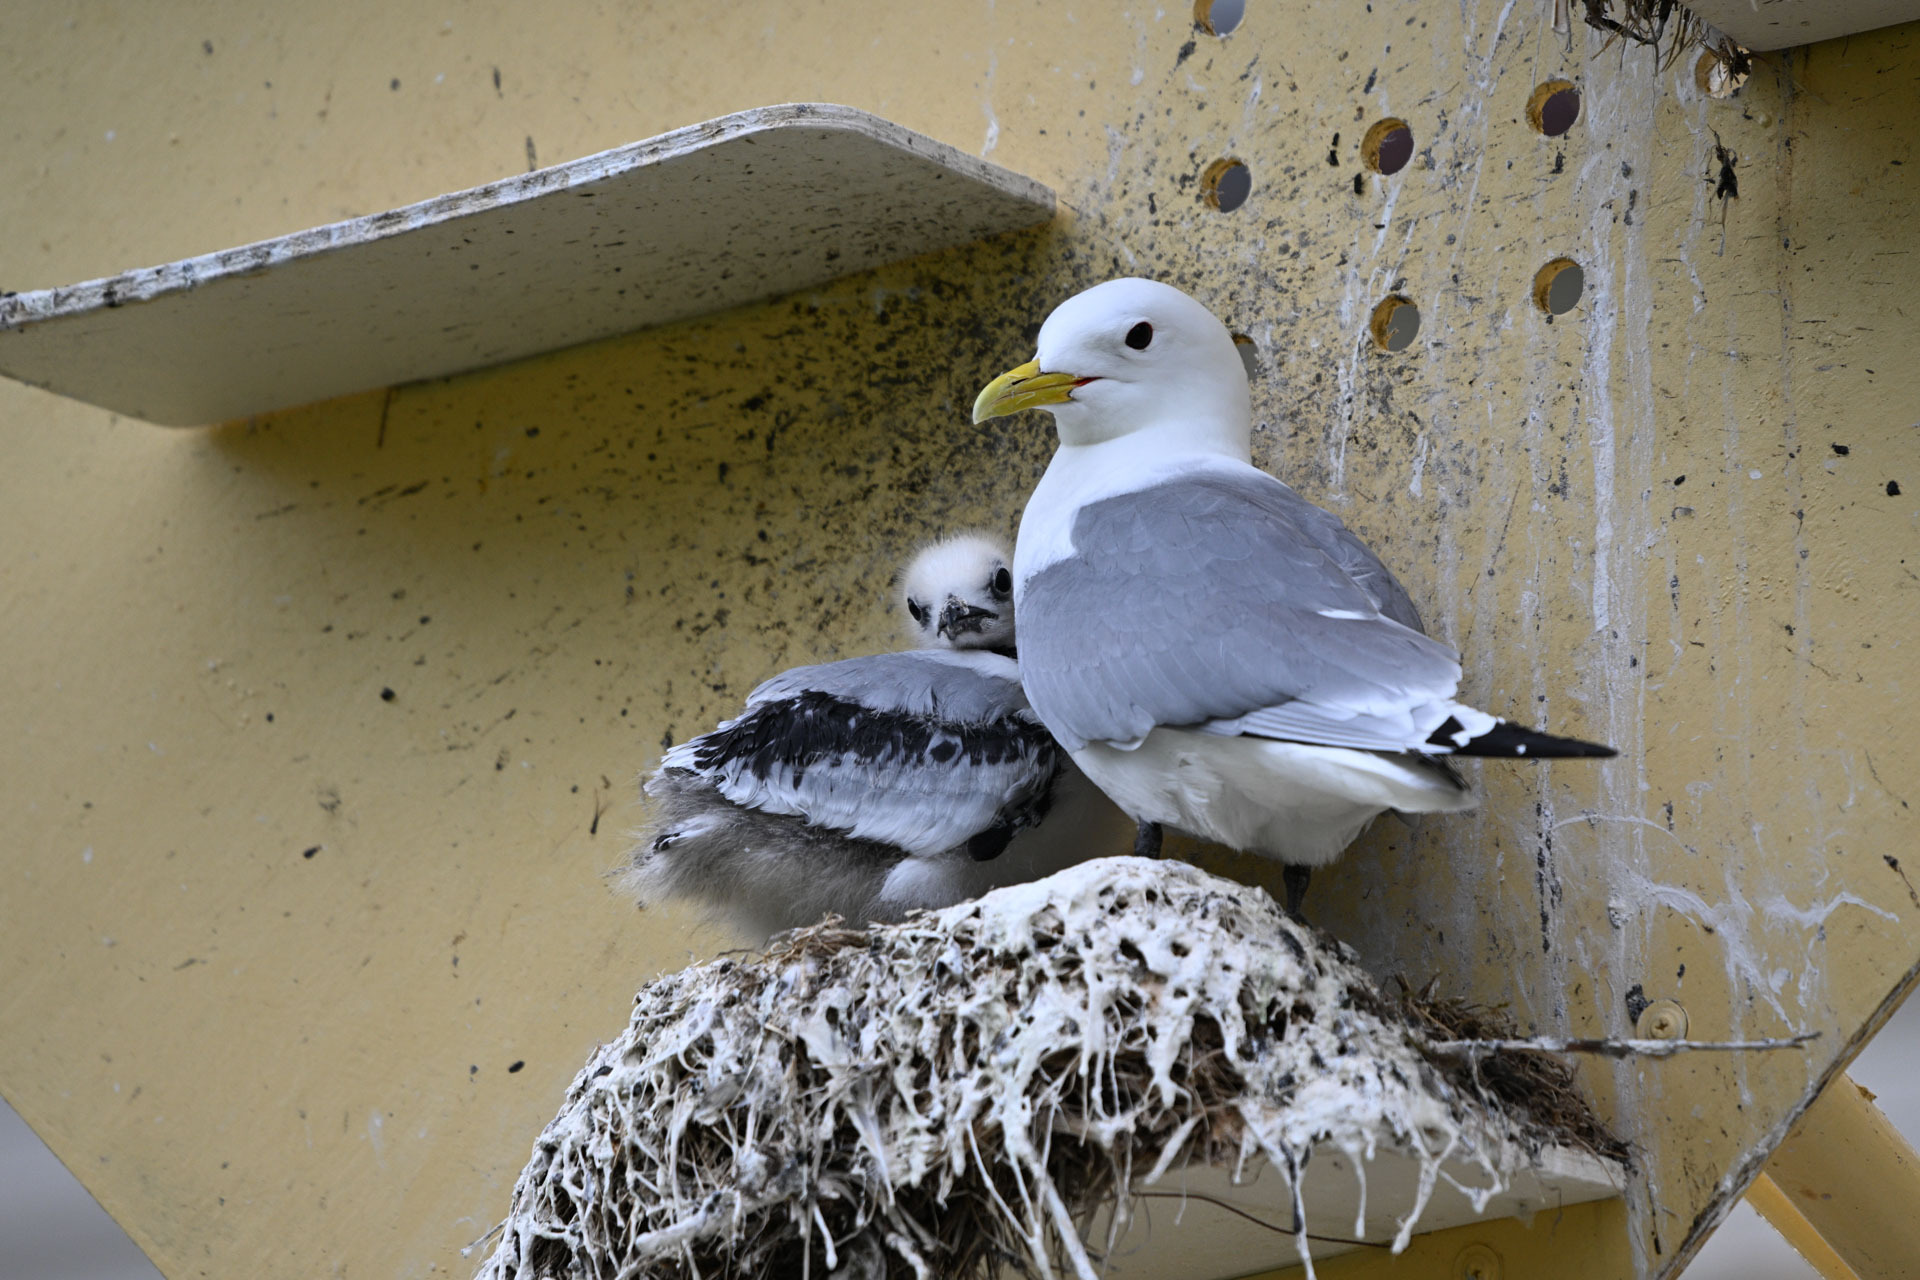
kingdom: Animalia
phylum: Chordata
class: Aves
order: Charadriiformes
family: Laridae
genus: Rissa
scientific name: Rissa tridactyla
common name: Black-legged kittiwake
